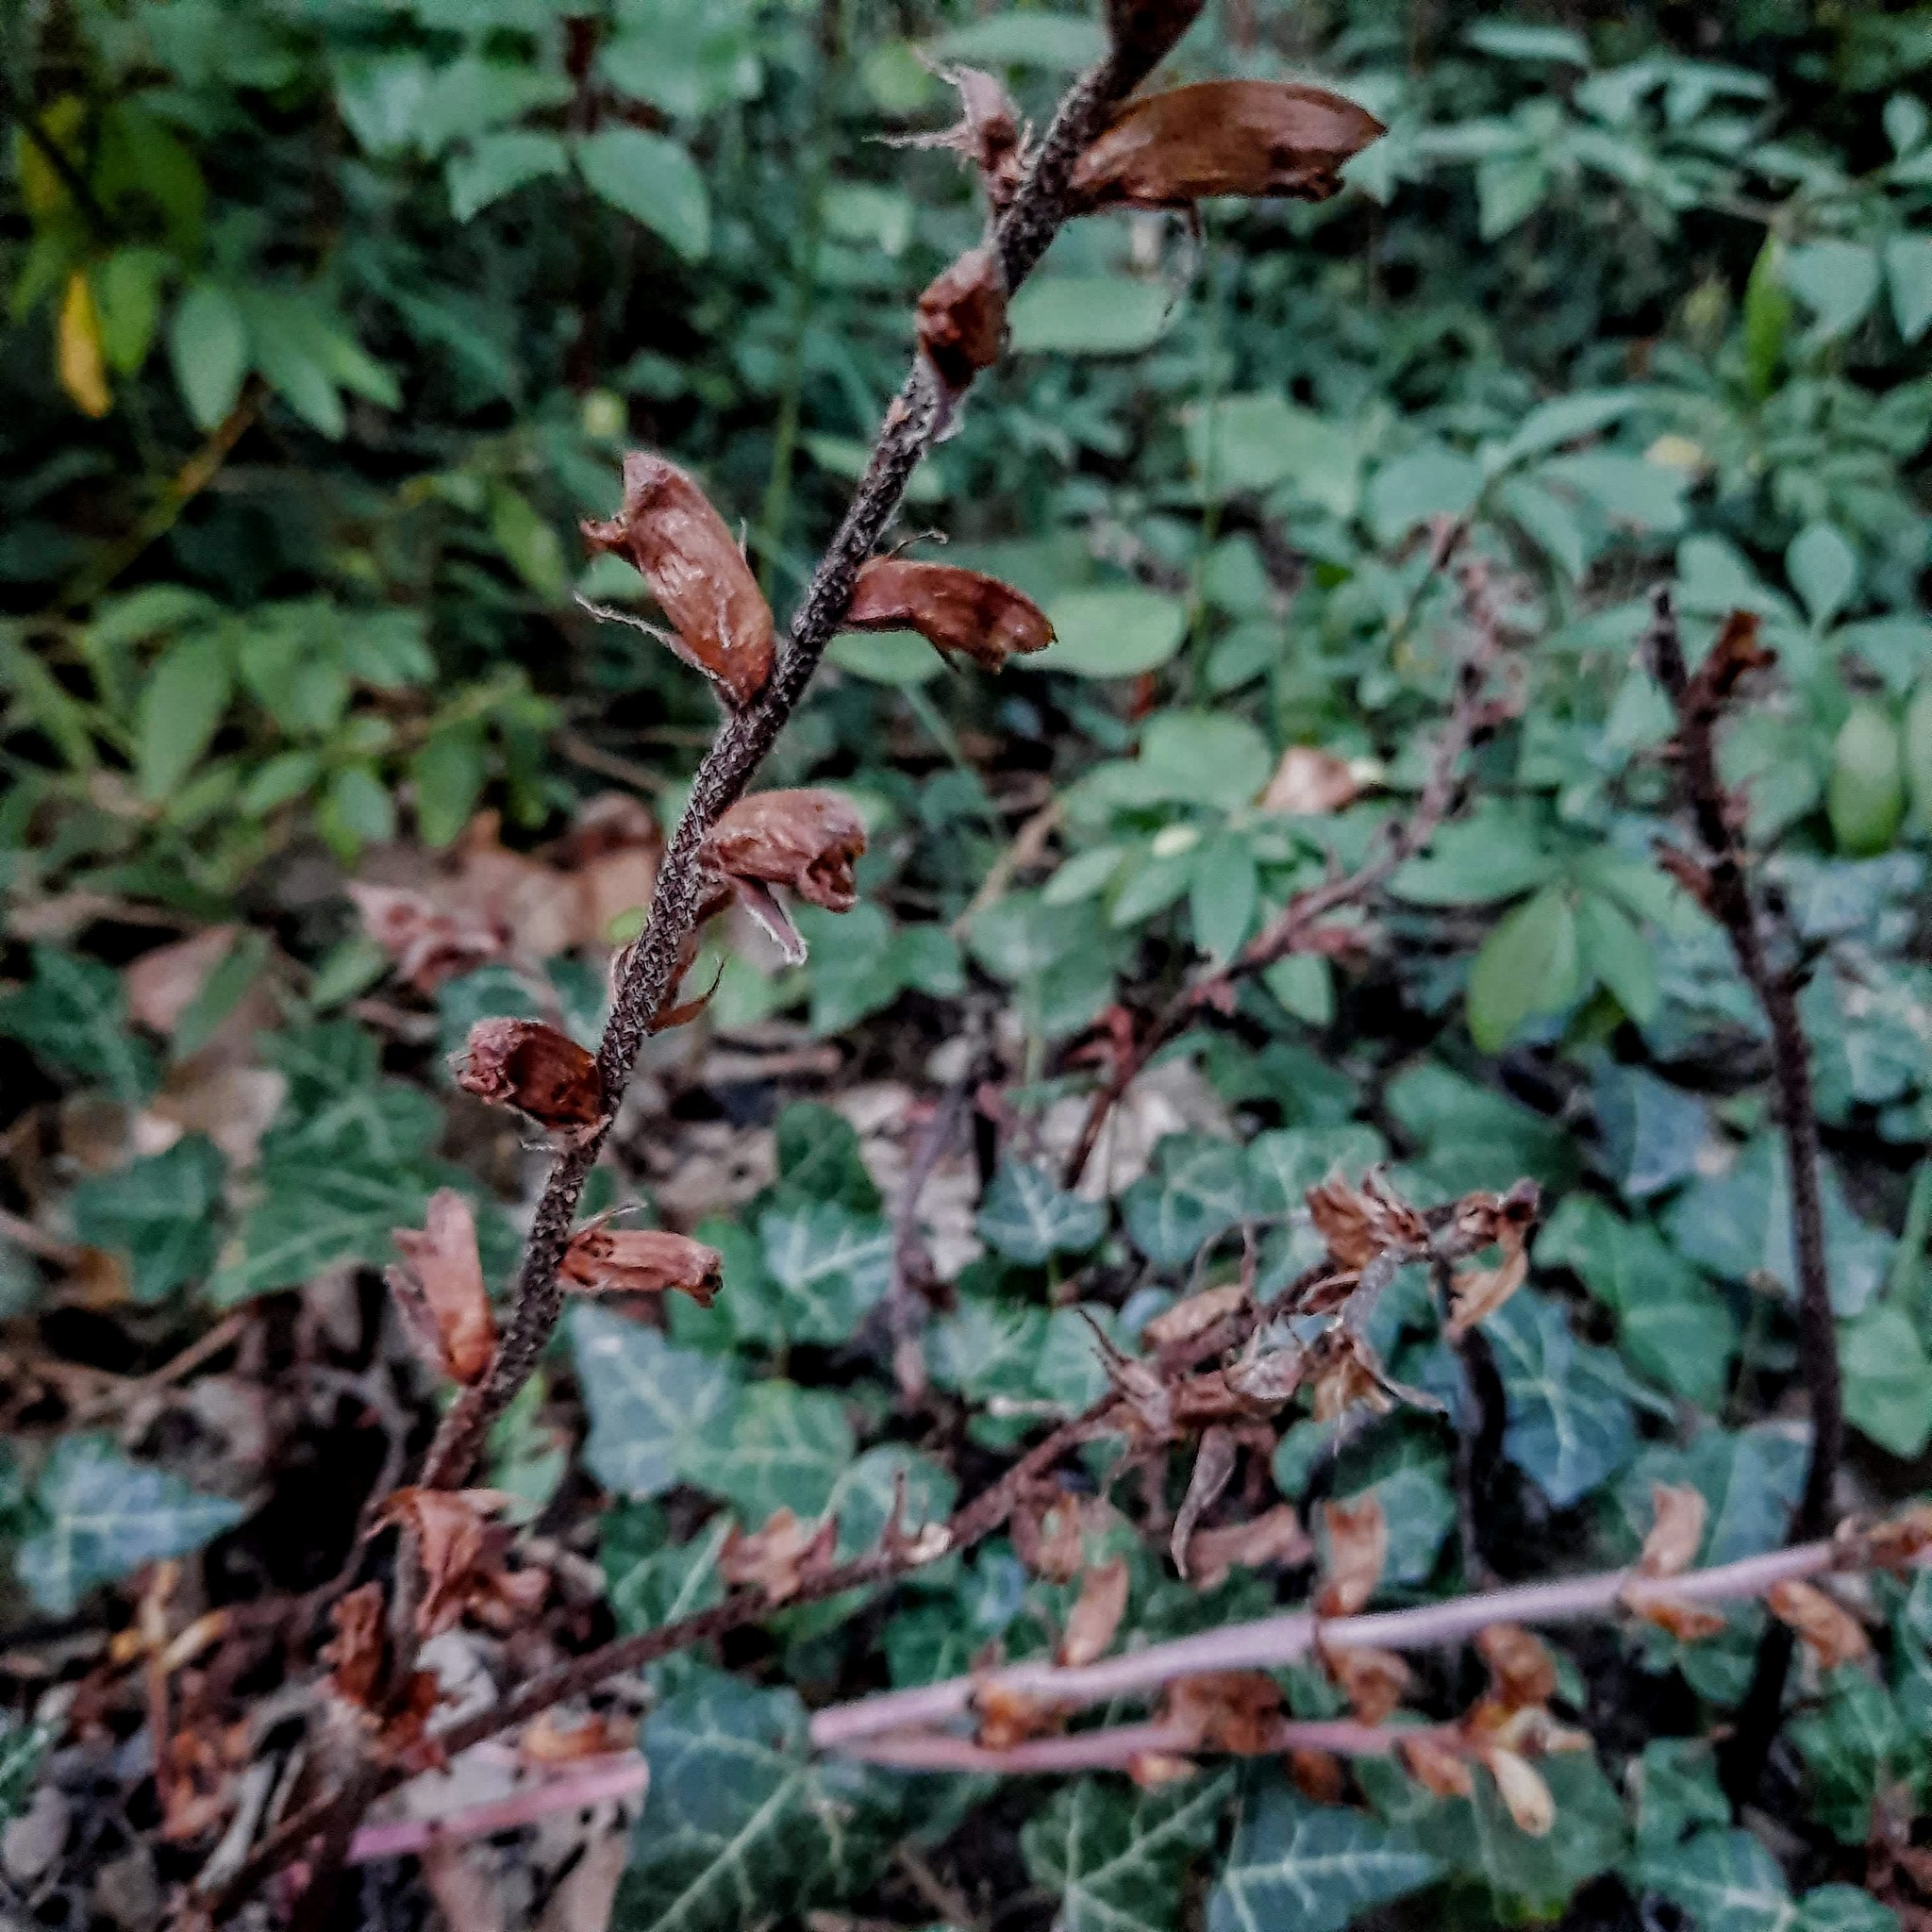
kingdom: Plantae
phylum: Tracheophyta
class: Magnoliopsida
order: Lamiales
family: Orobanchaceae
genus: Orobanche
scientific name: Orobanche laxissima
